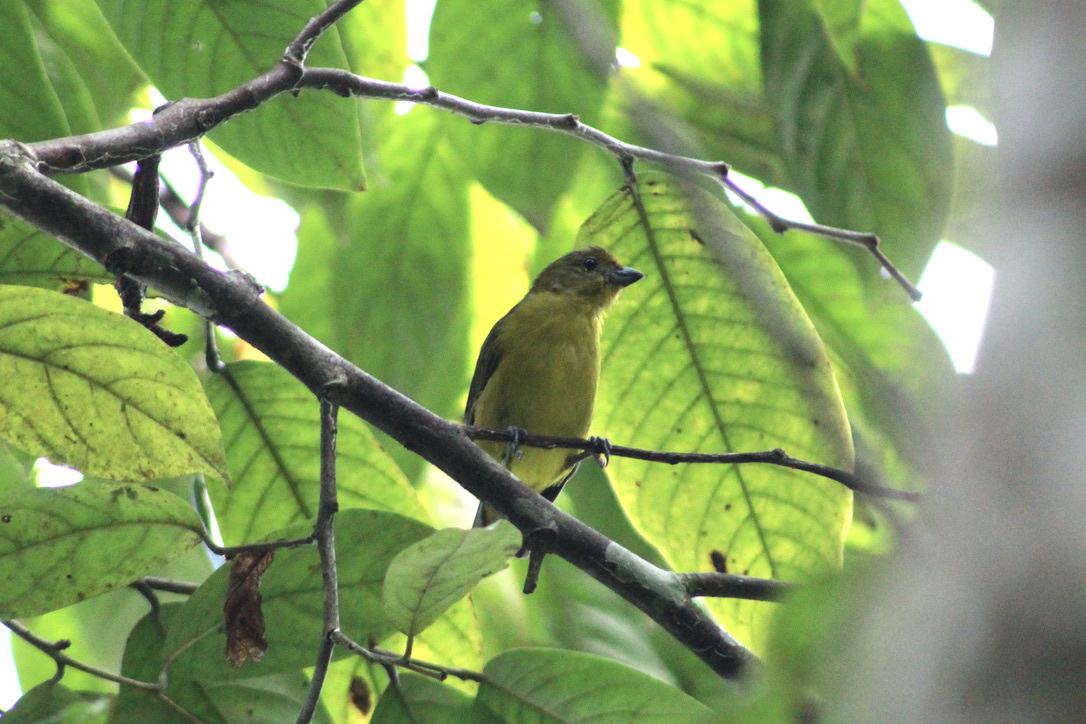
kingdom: Animalia
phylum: Chordata
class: Aves
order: Passeriformes
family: Fringillidae
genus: Euphonia
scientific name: Euphonia violacea
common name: Violaceous euphonia
